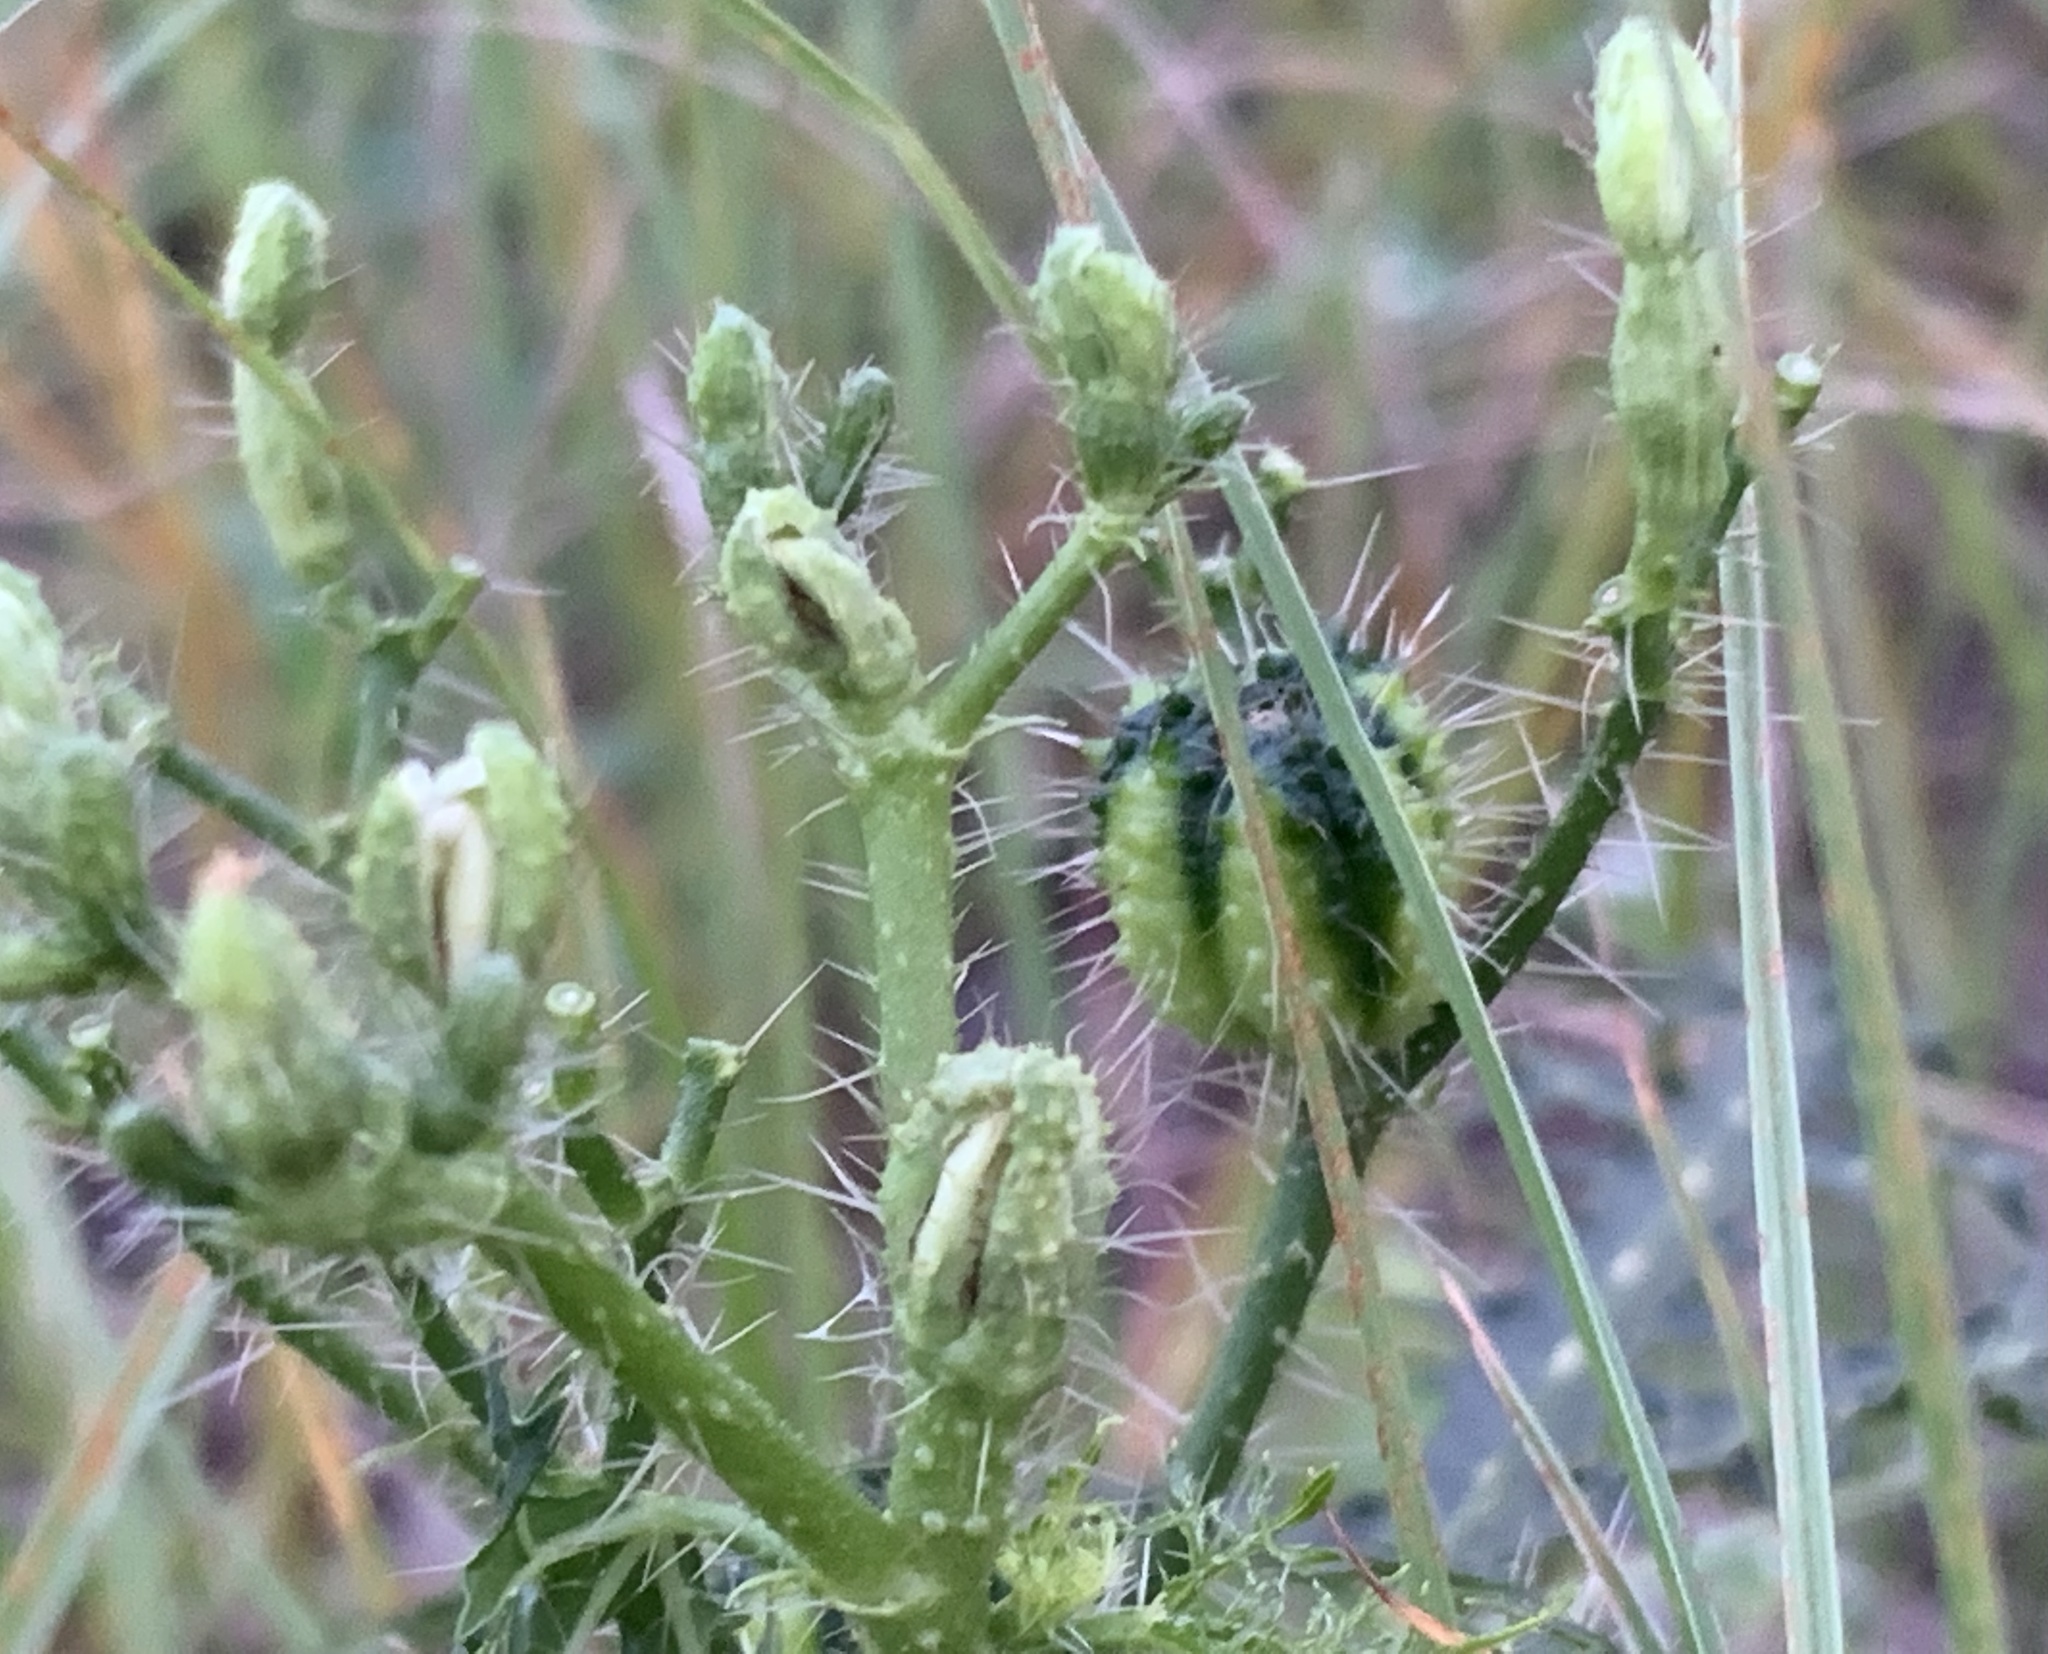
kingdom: Plantae
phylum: Tracheophyta
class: Magnoliopsida
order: Malpighiales
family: Euphorbiaceae
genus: Cnidoscolus
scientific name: Cnidoscolus stimulosus
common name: Bull-nettle
